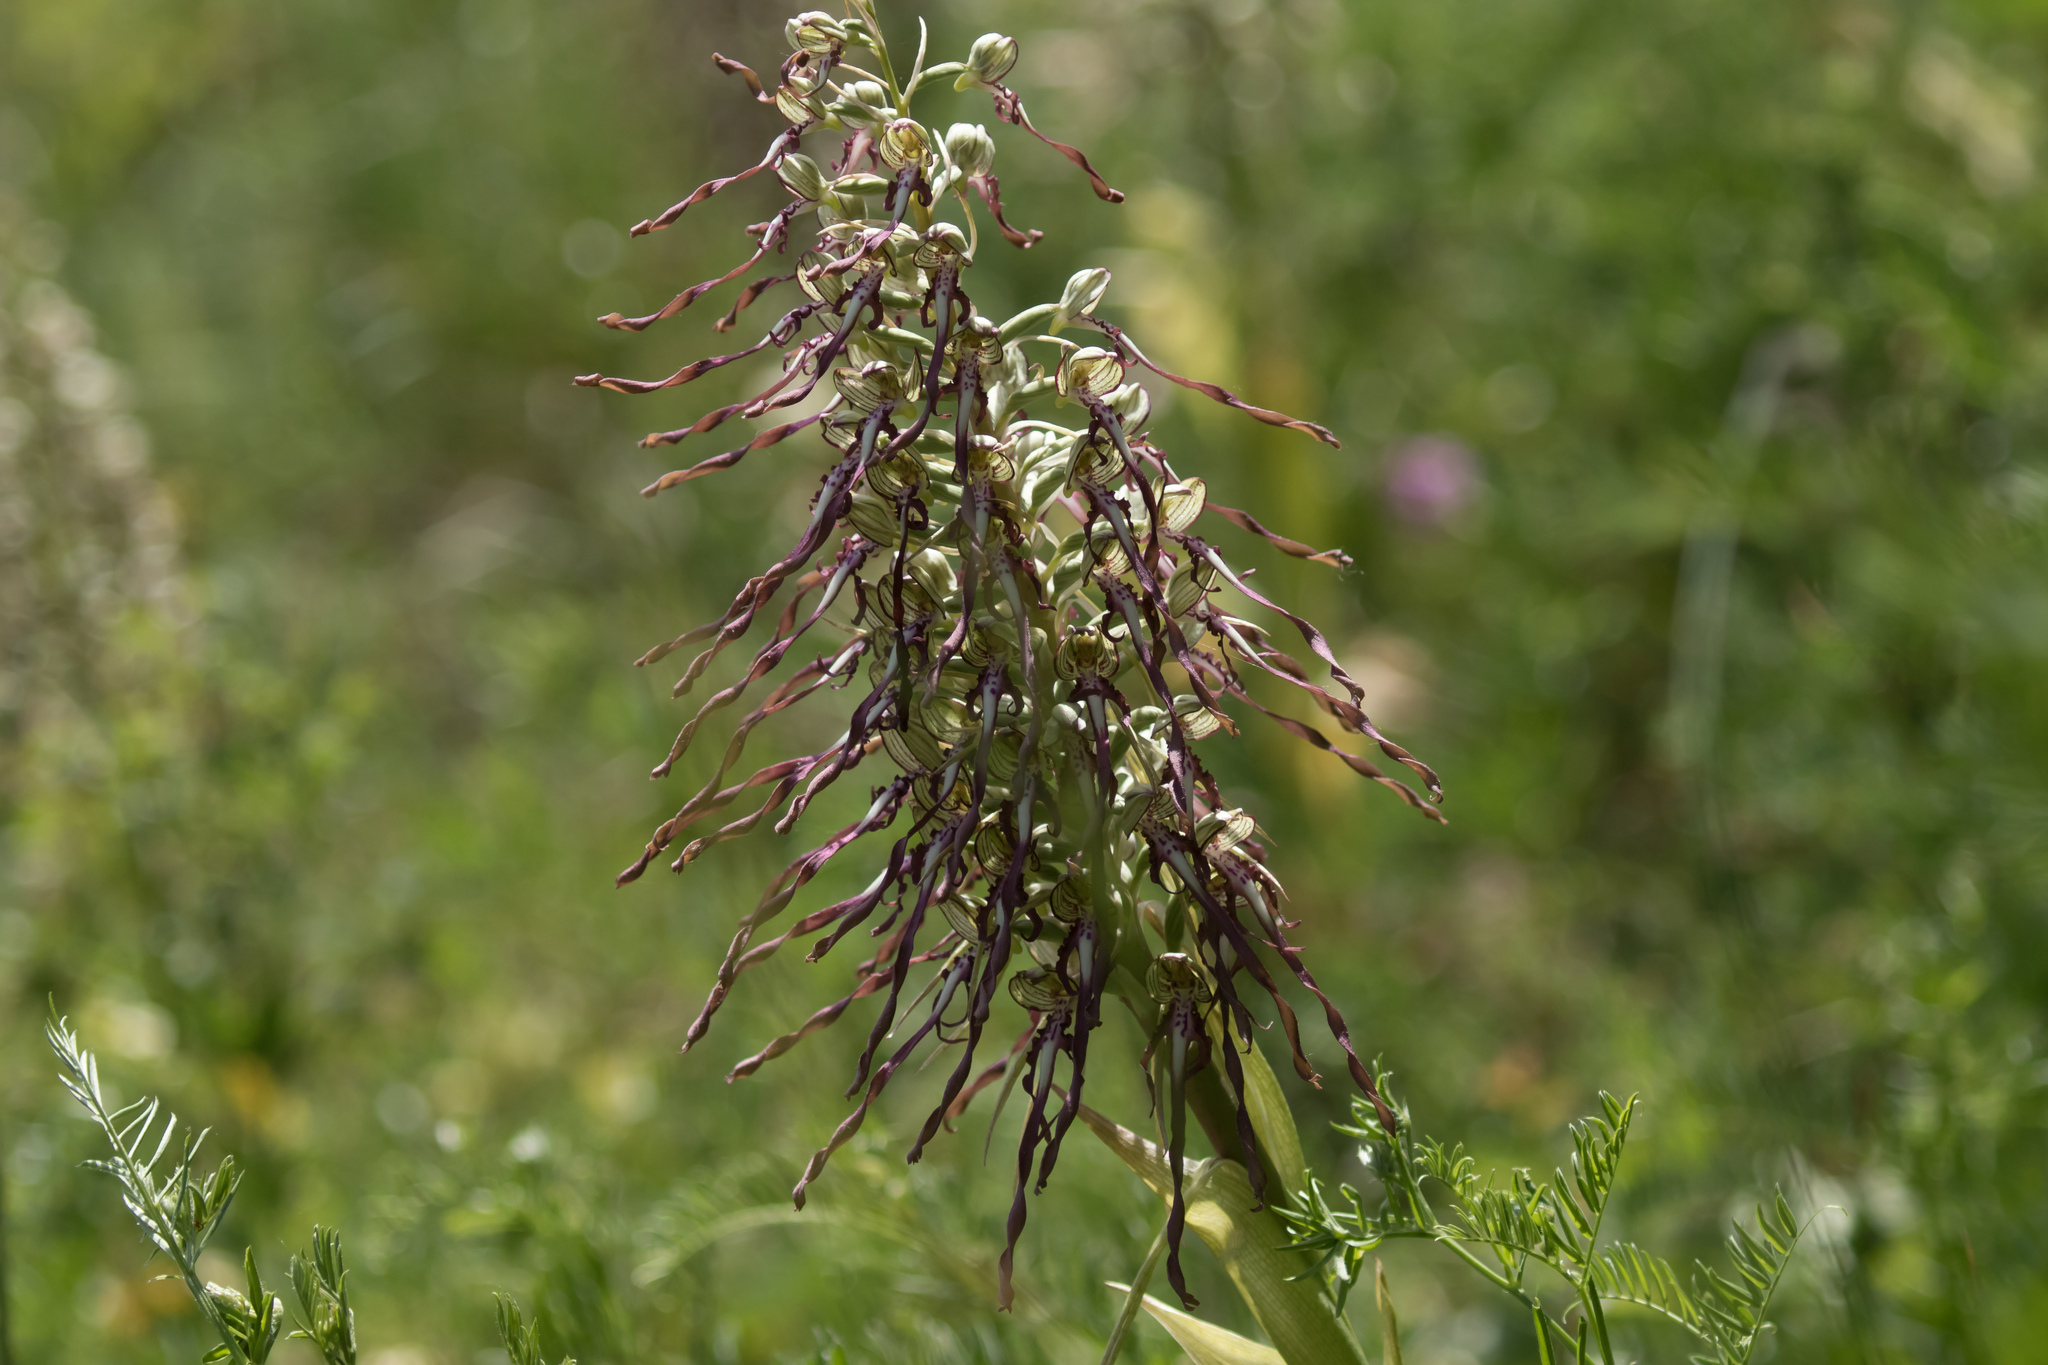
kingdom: Plantae
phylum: Tracheophyta
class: Liliopsida
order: Asparagales
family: Orchidaceae
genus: Himantoglossum
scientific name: Himantoglossum hircinum
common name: Lizard orchid
